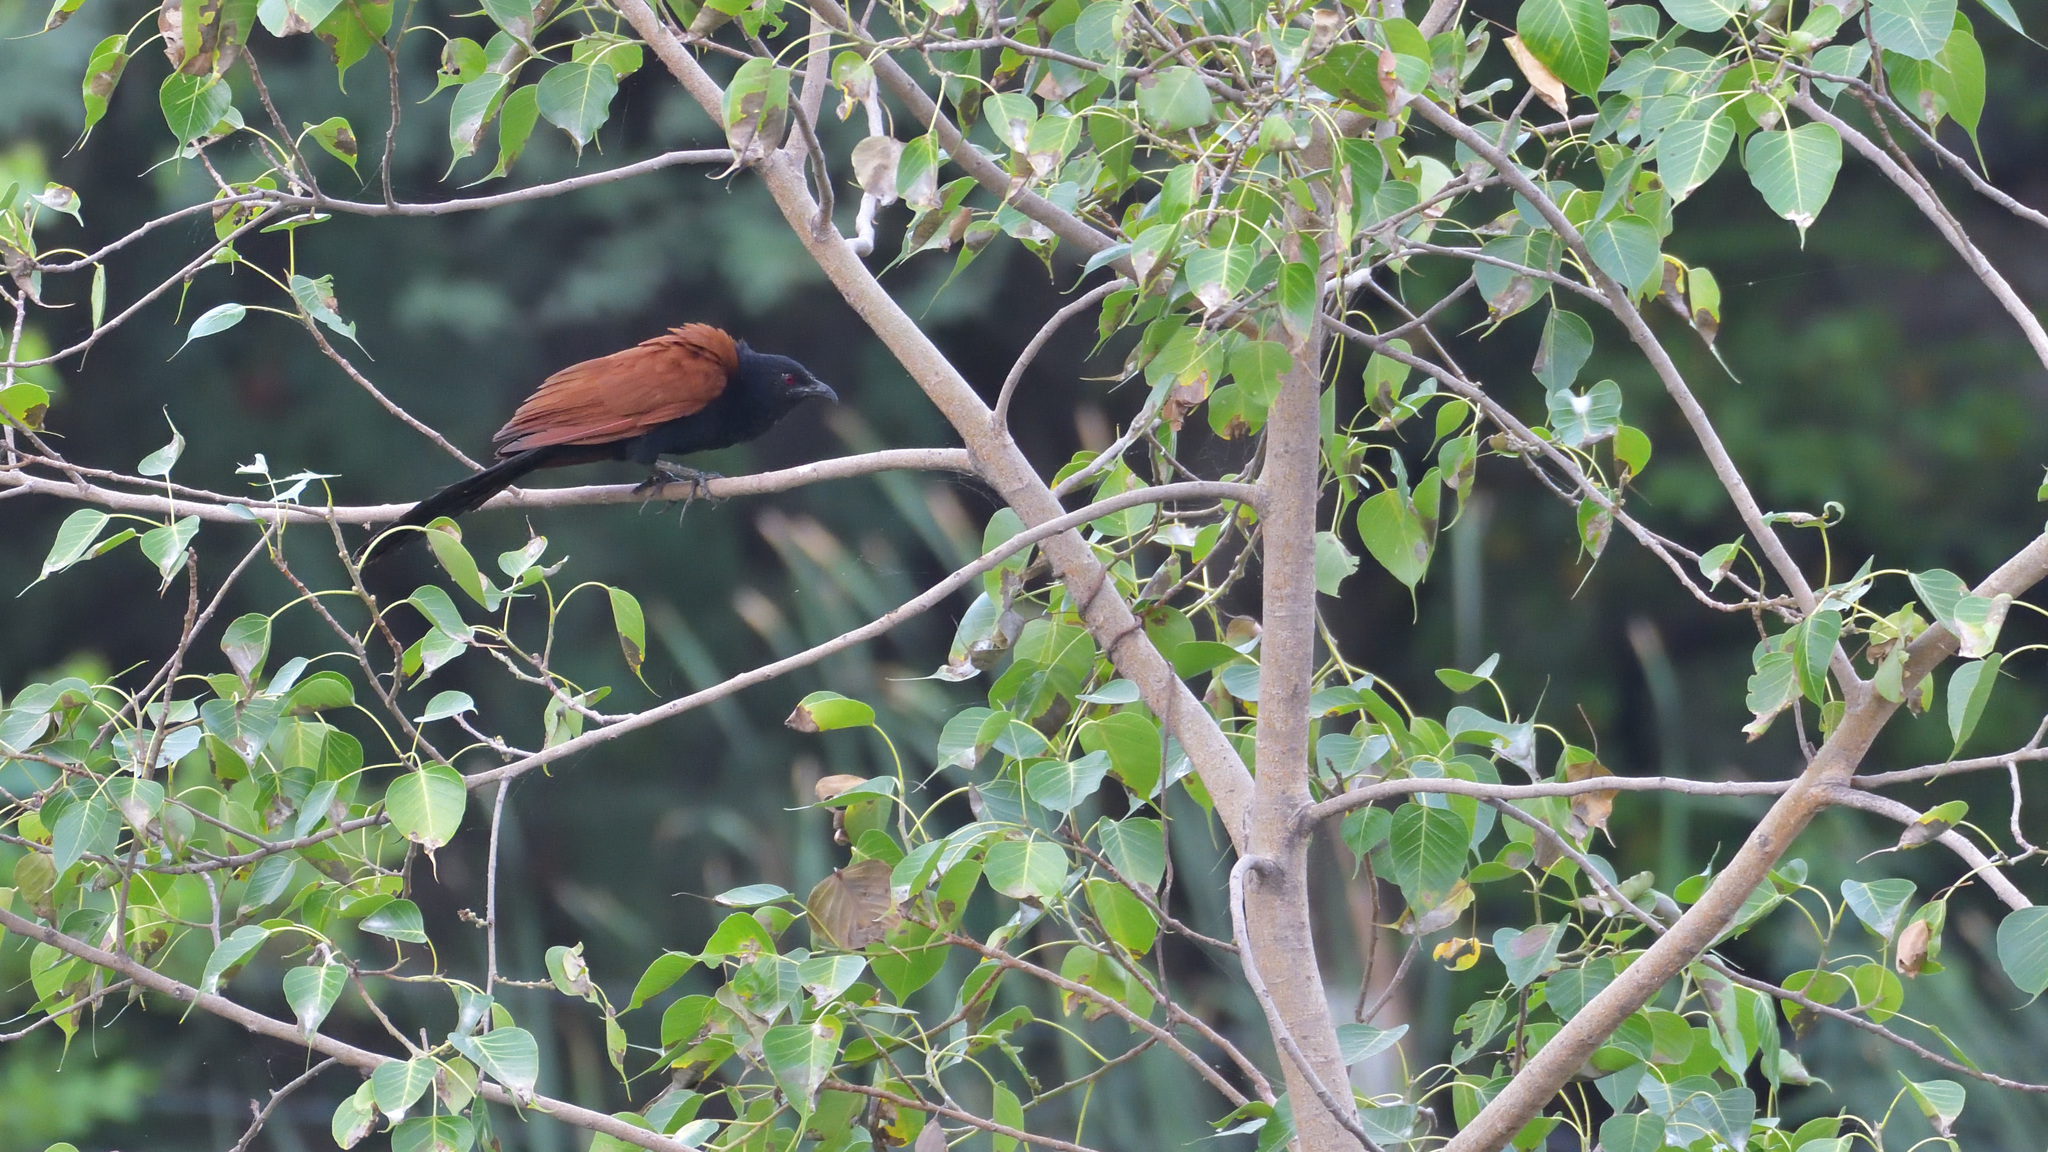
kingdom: Animalia
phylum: Chordata
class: Aves
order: Cuculiformes
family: Cuculidae
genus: Centropus
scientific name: Centropus sinensis
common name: Greater coucal
